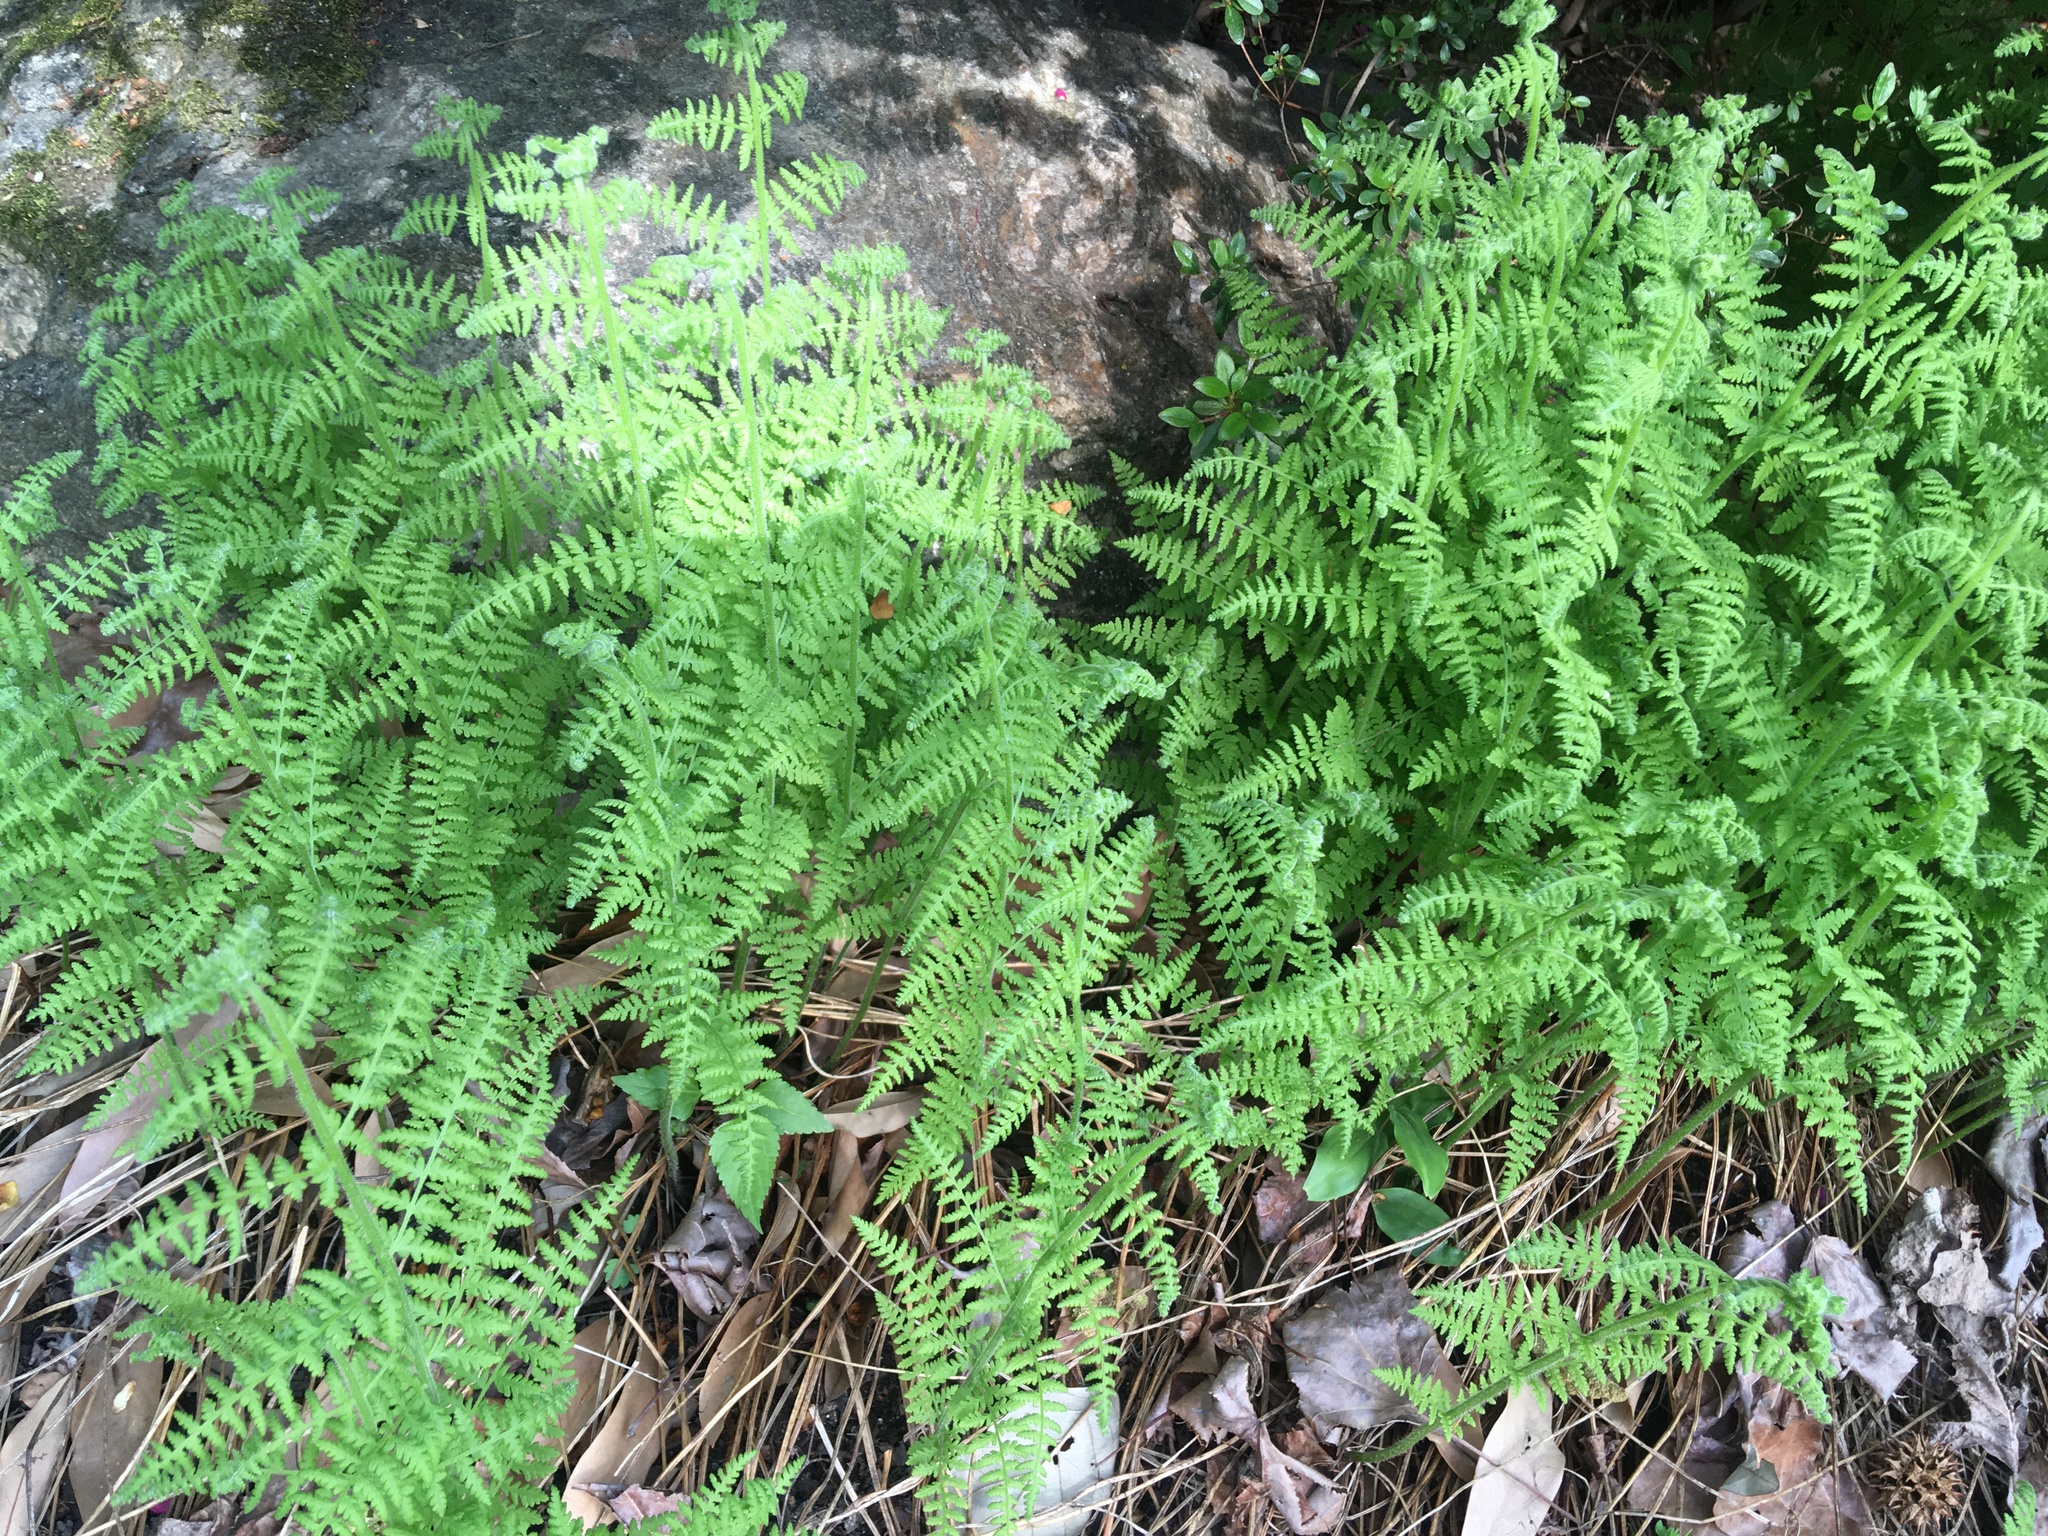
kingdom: Plantae
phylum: Tracheophyta
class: Polypodiopsida
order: Polypodiales
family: Dennstaedtiaceae
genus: Sitobolium
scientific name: Sitobolium punctilobum
